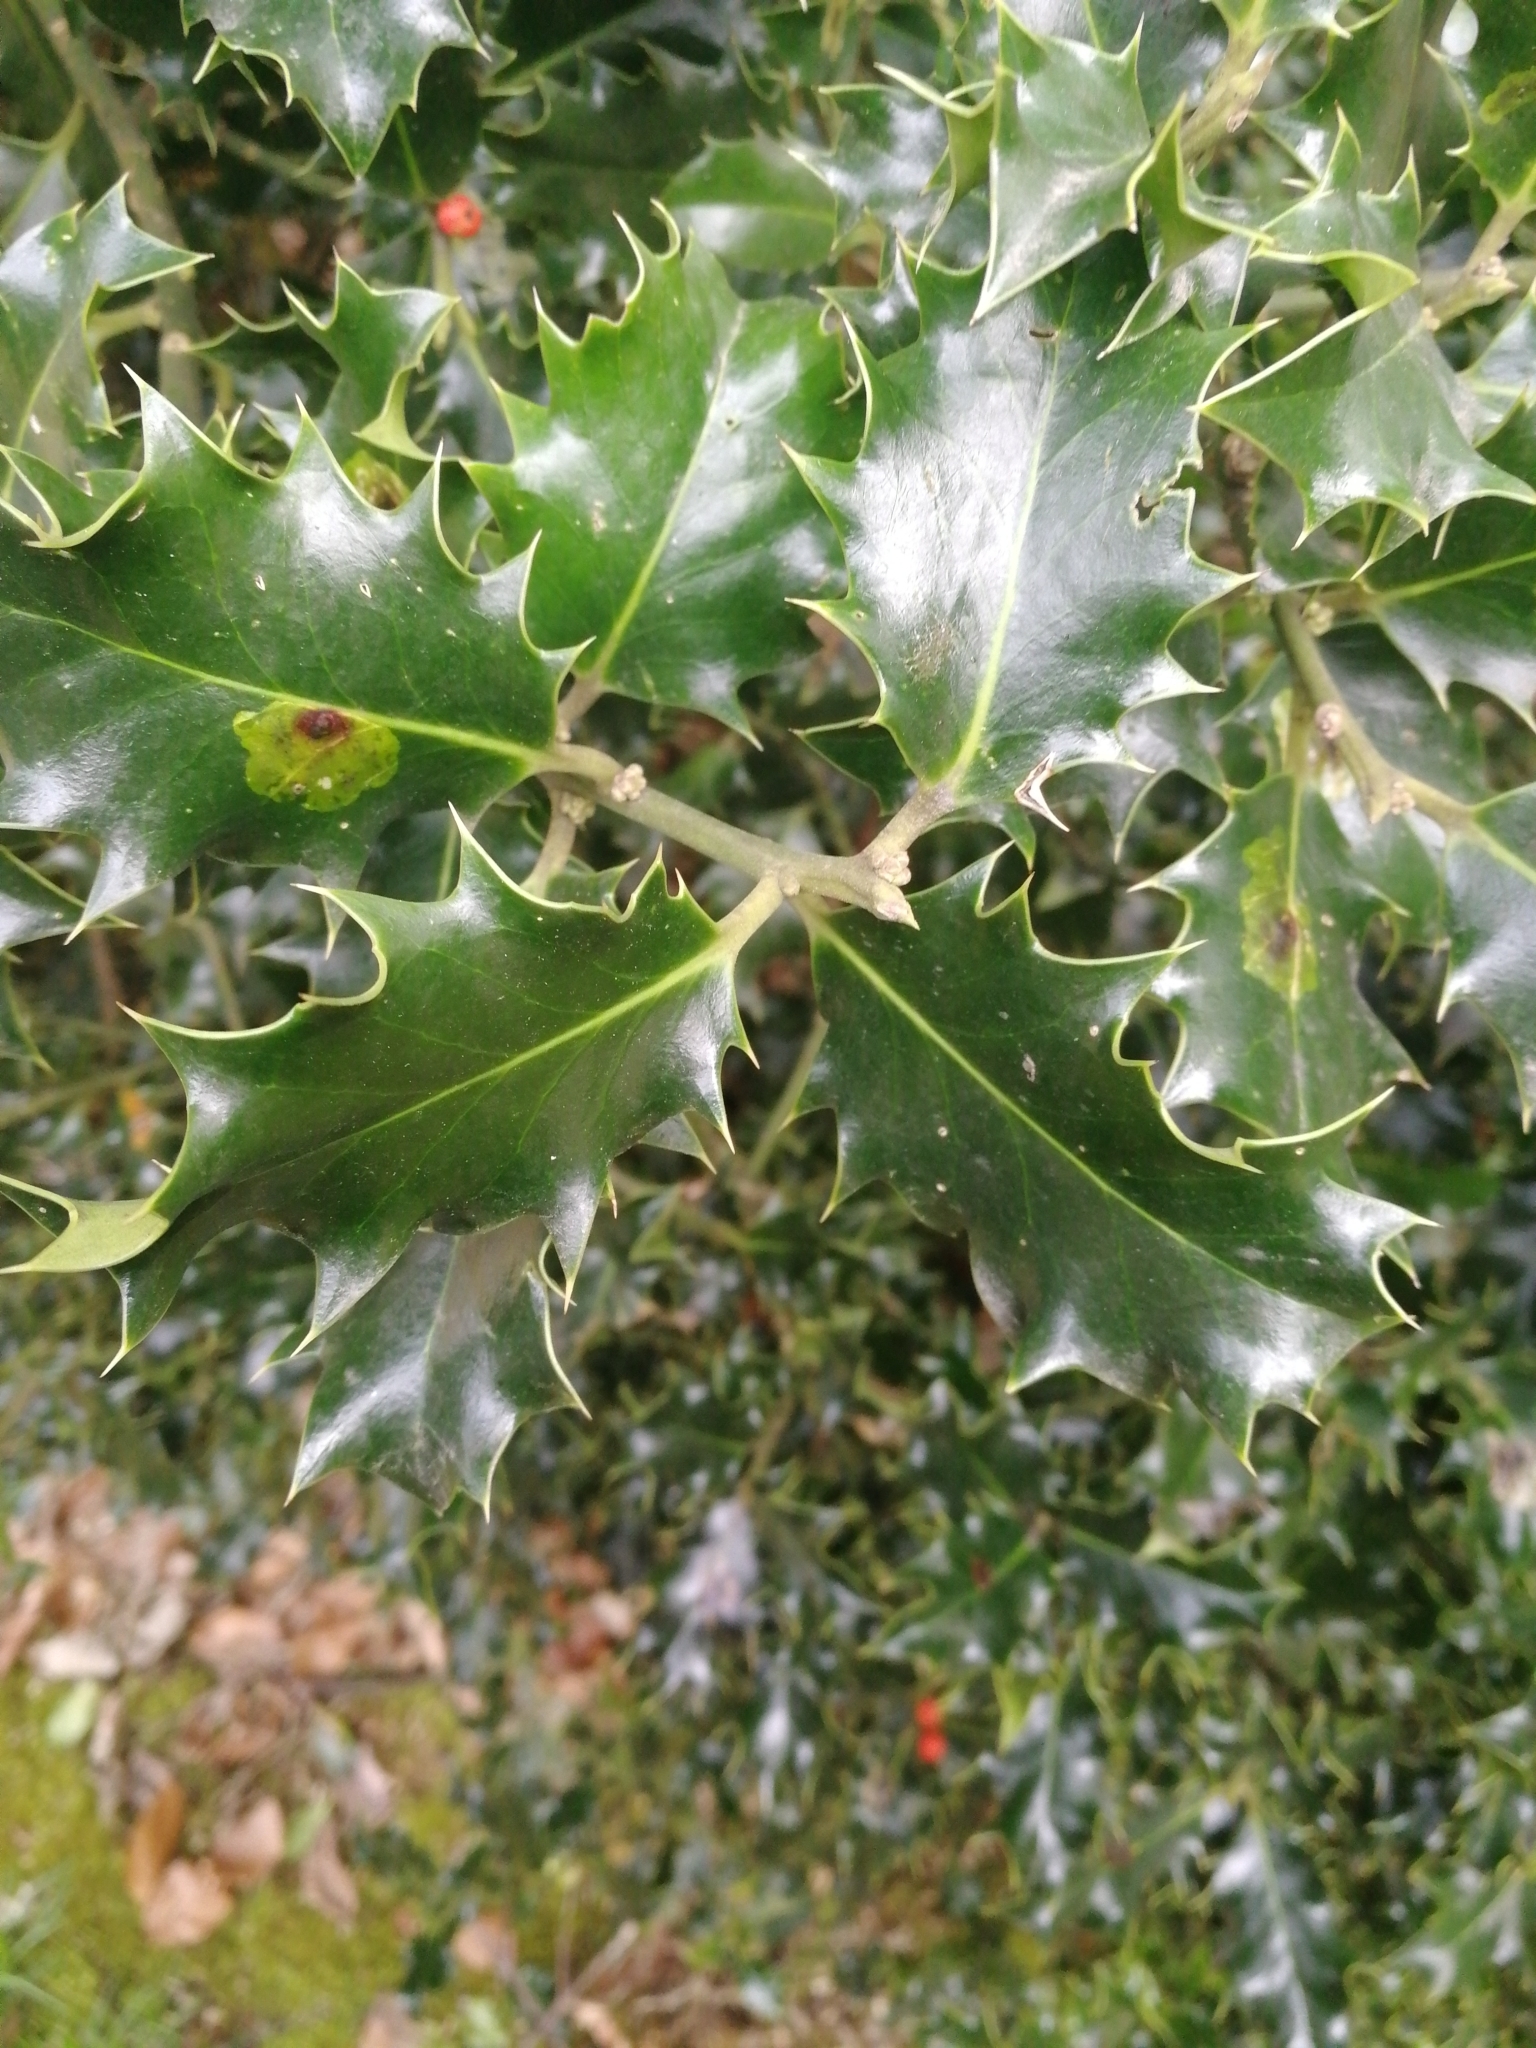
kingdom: Plantae
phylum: Tracheophyta
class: Magnoliopsida
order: Aquifoliales
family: Aquifoliaceae
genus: Ilex
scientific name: Ilex aquifolium
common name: English holly
